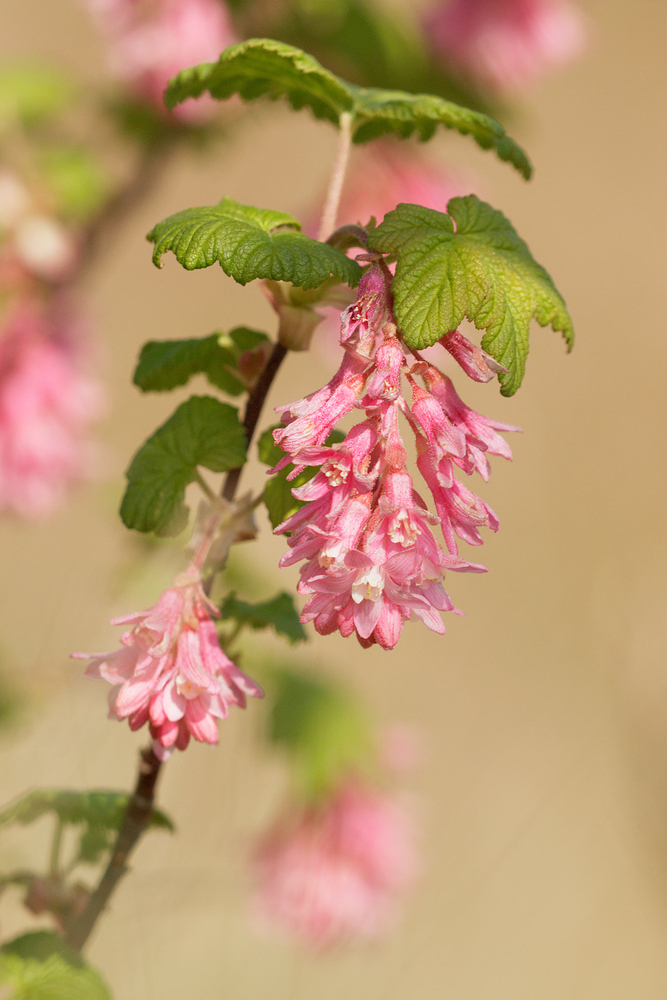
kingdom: Plantae
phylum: Tracheophyta
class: Magnoliopsida
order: Saxifragales
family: Grossulariaceae
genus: Ribes
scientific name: Ribes sanguineum
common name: Flowering currant
